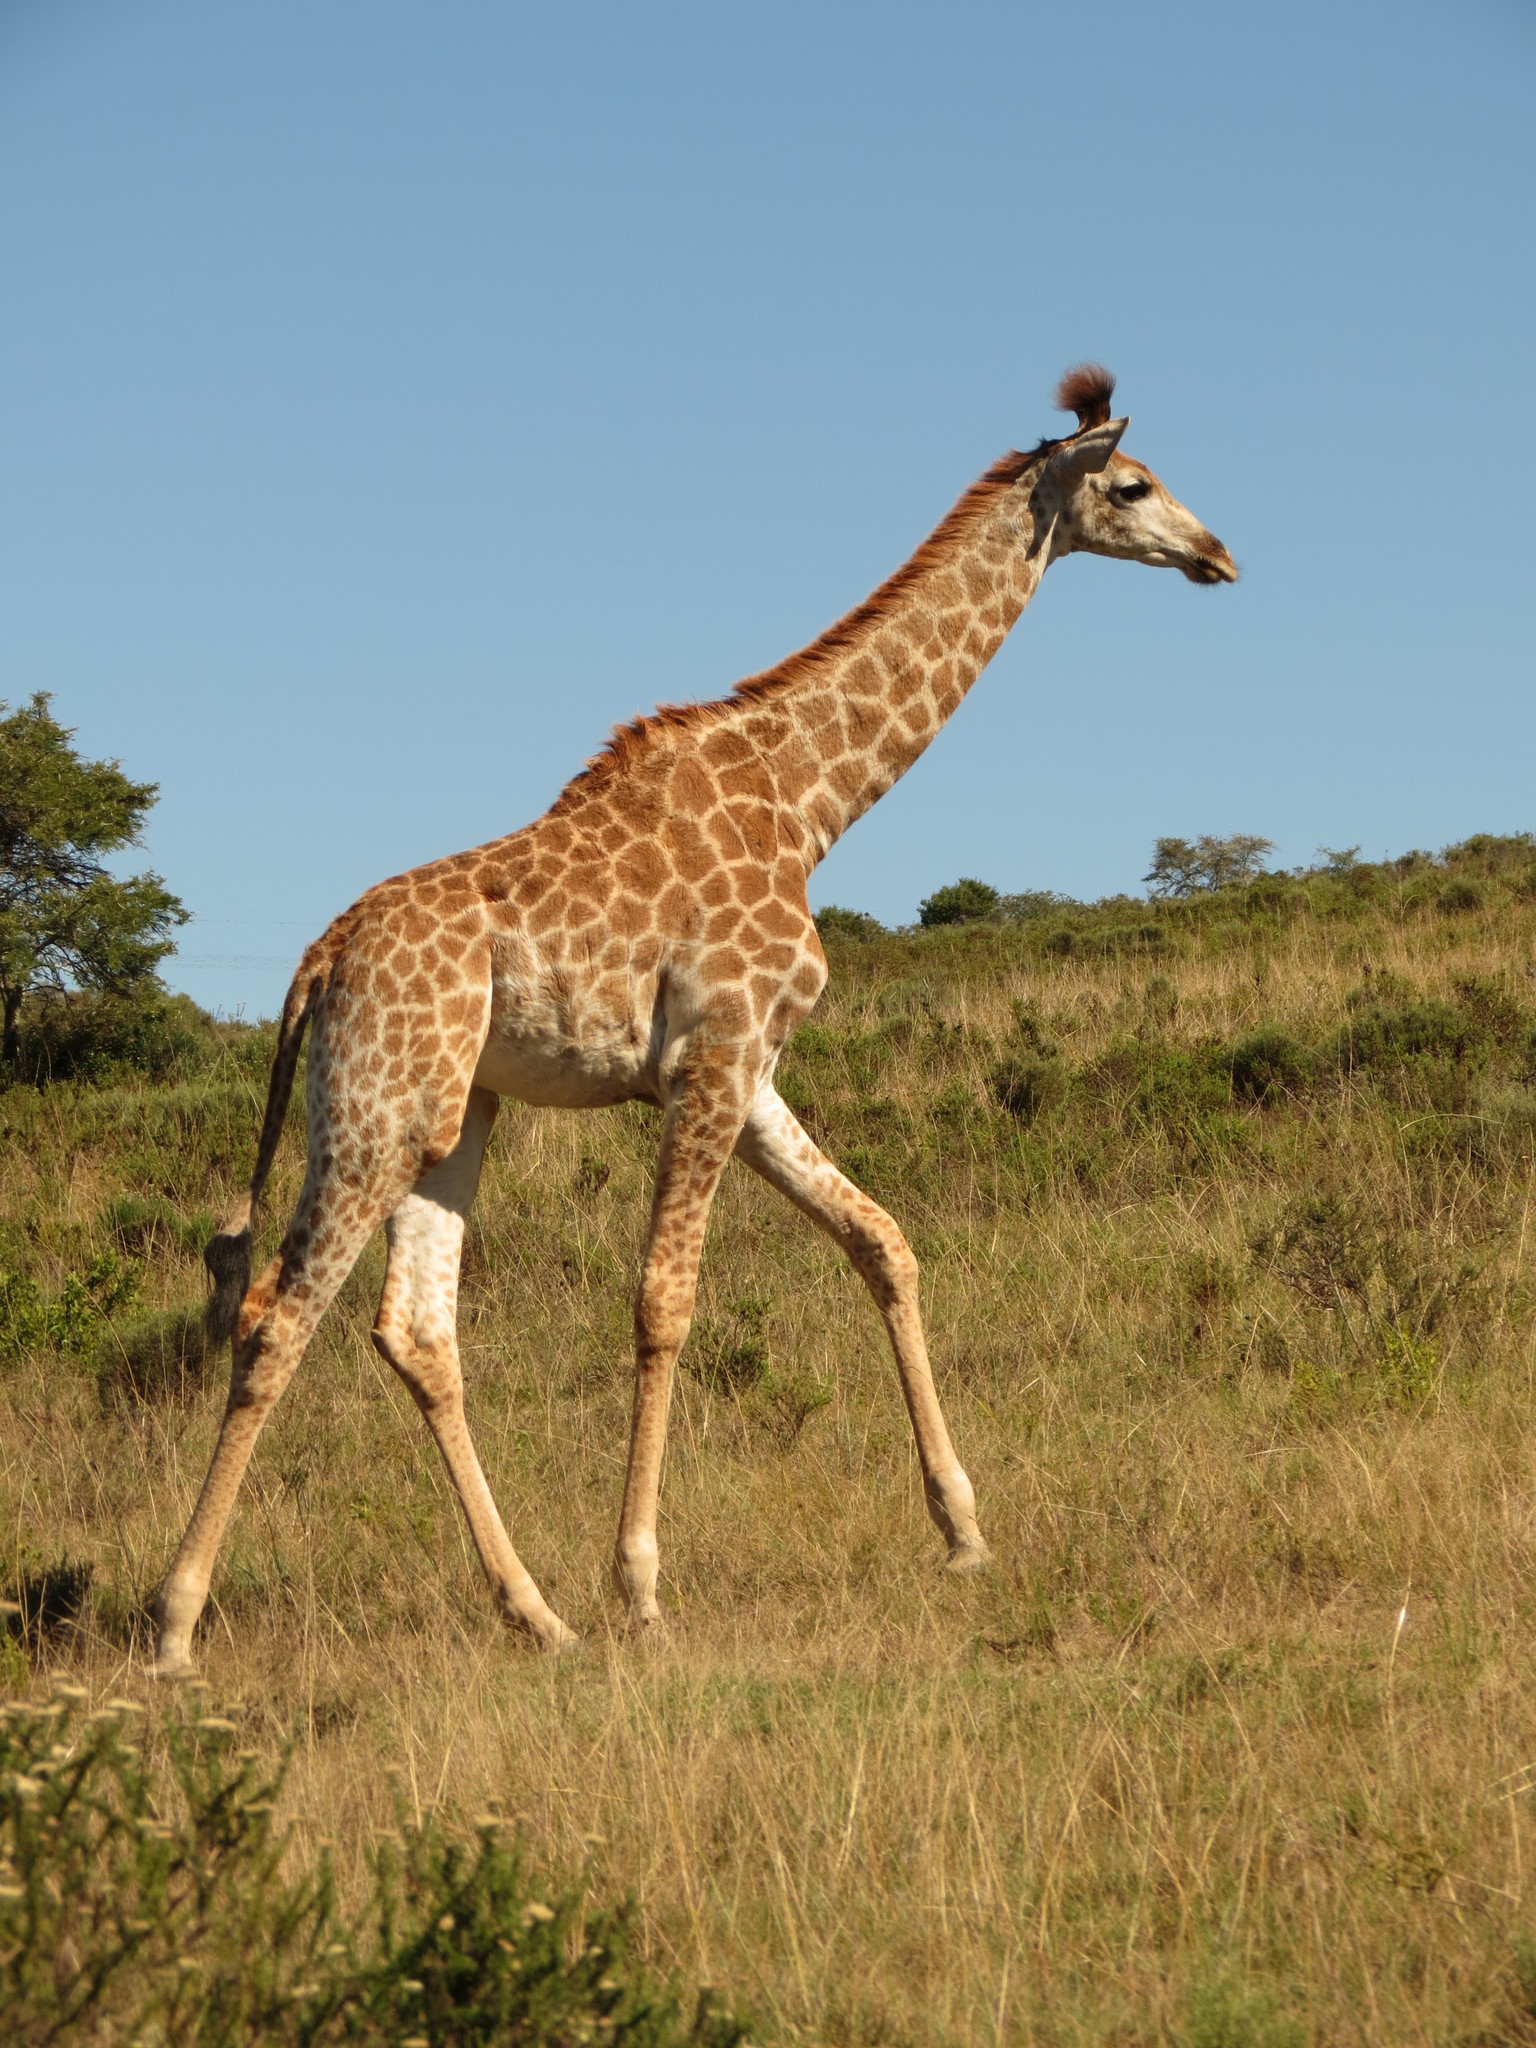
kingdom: Animalia
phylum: Chordata
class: Mammalia
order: Artiodactyla
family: Giraffidae
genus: Giraffa
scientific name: Giraffa giraffa
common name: Southern giraffe
